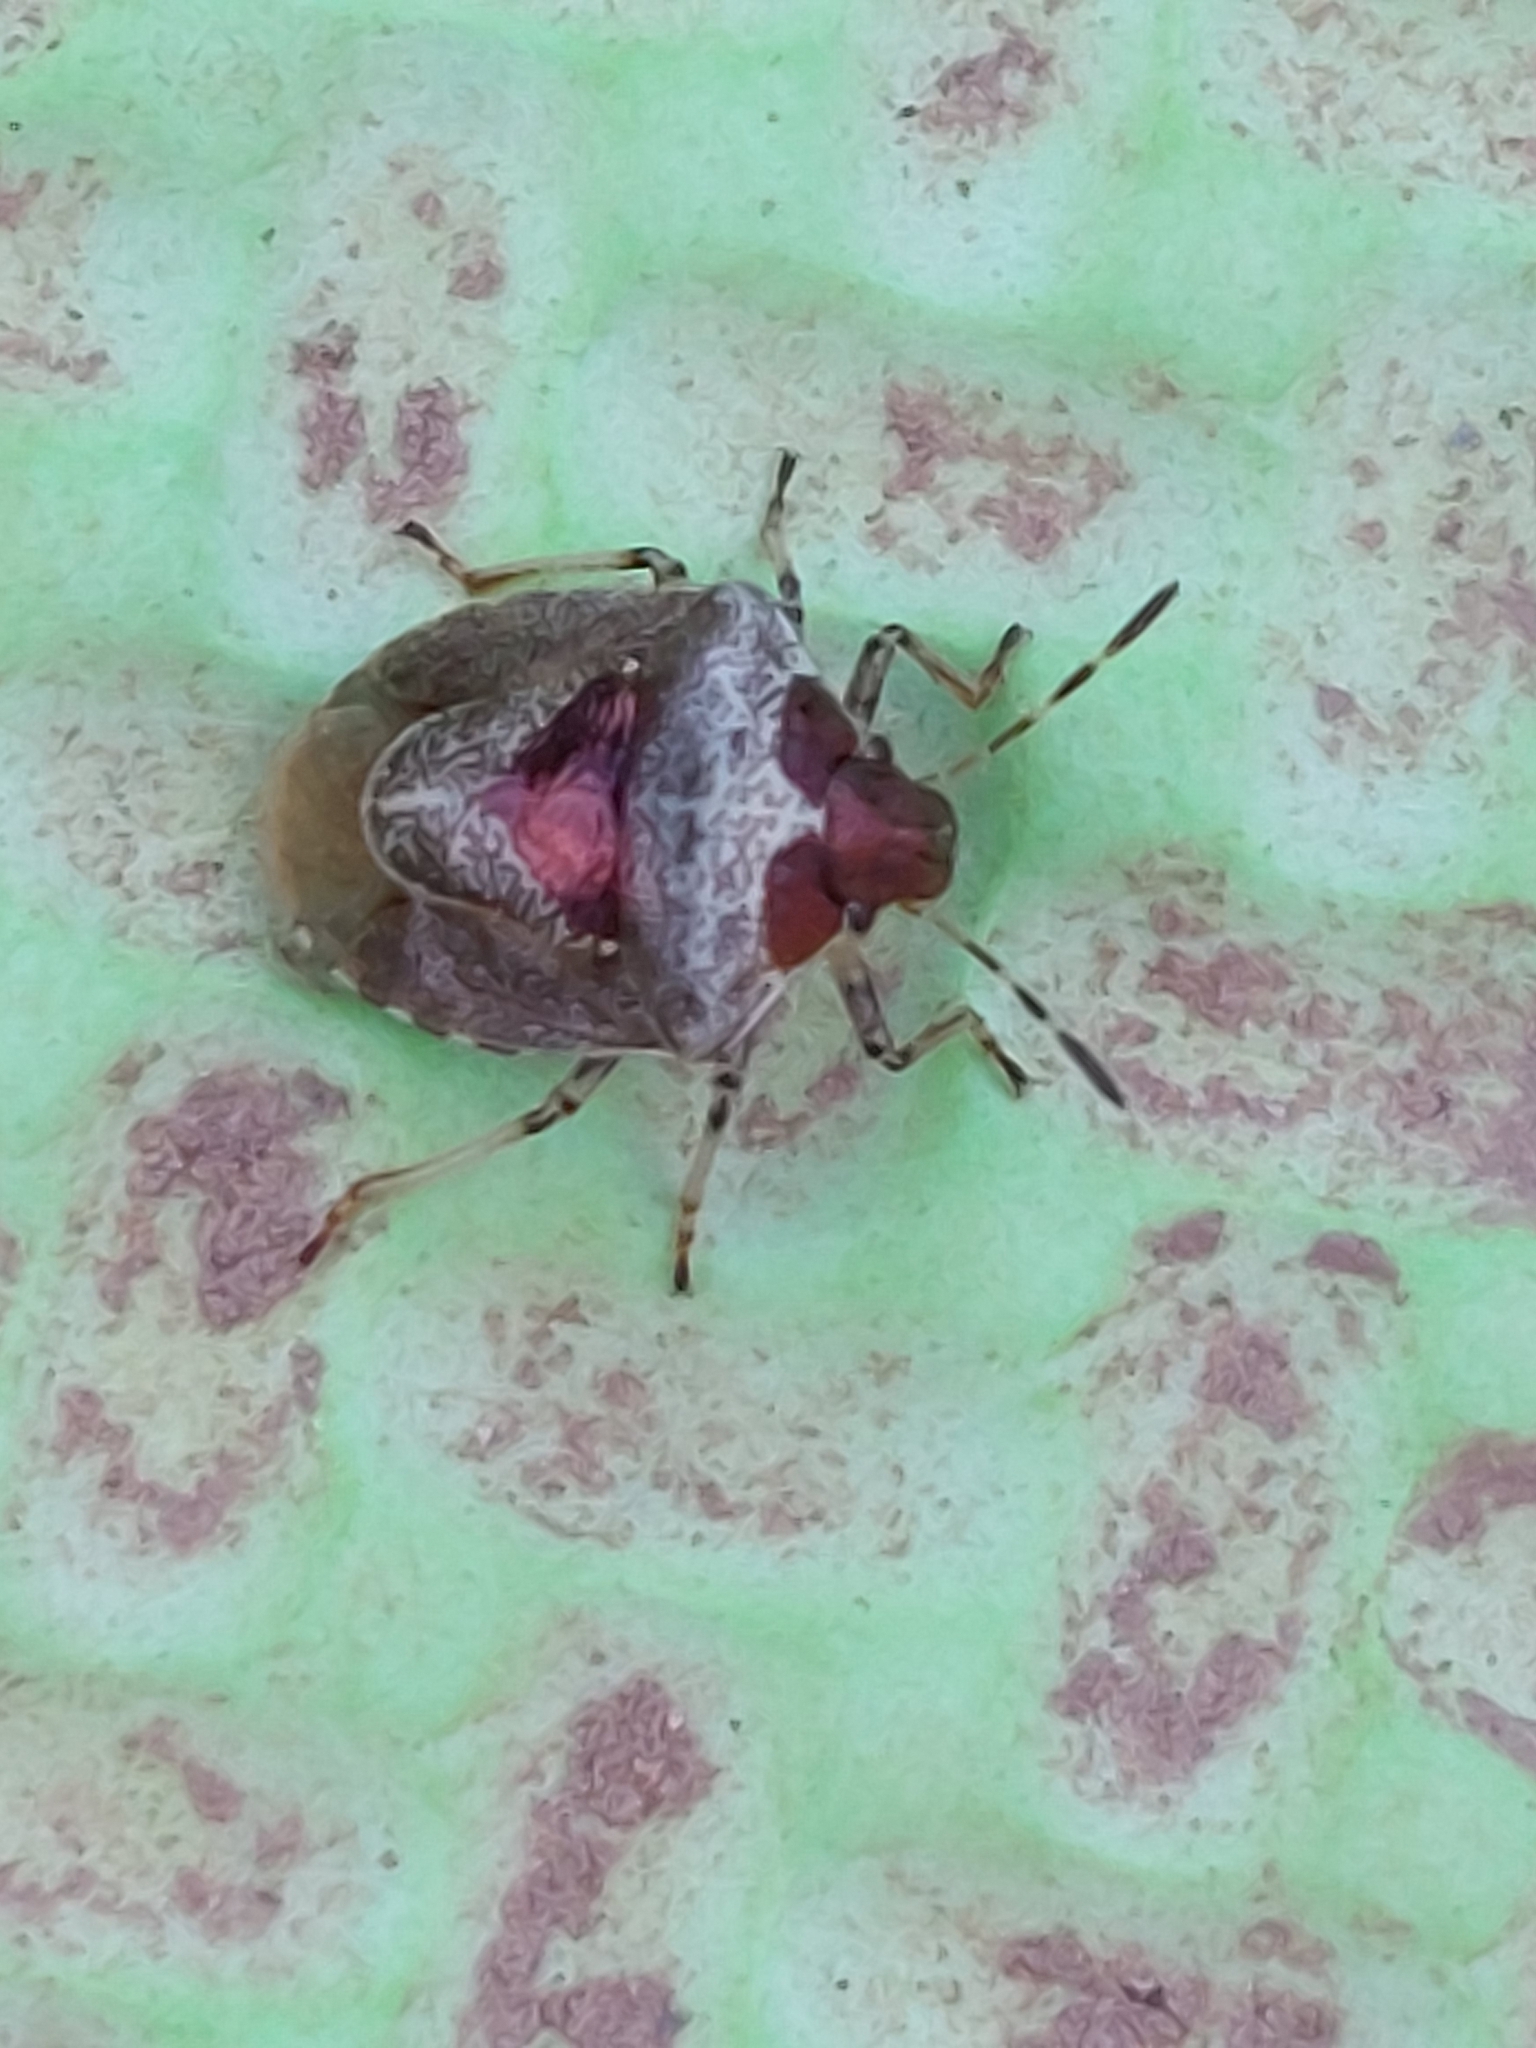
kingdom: Animalia
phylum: Arthropoda
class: Insecta
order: Hemiptera
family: Pentatomidae
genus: Eysarcoris
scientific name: Eysarcoris venustissimus
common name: Woundwort shieldbug
